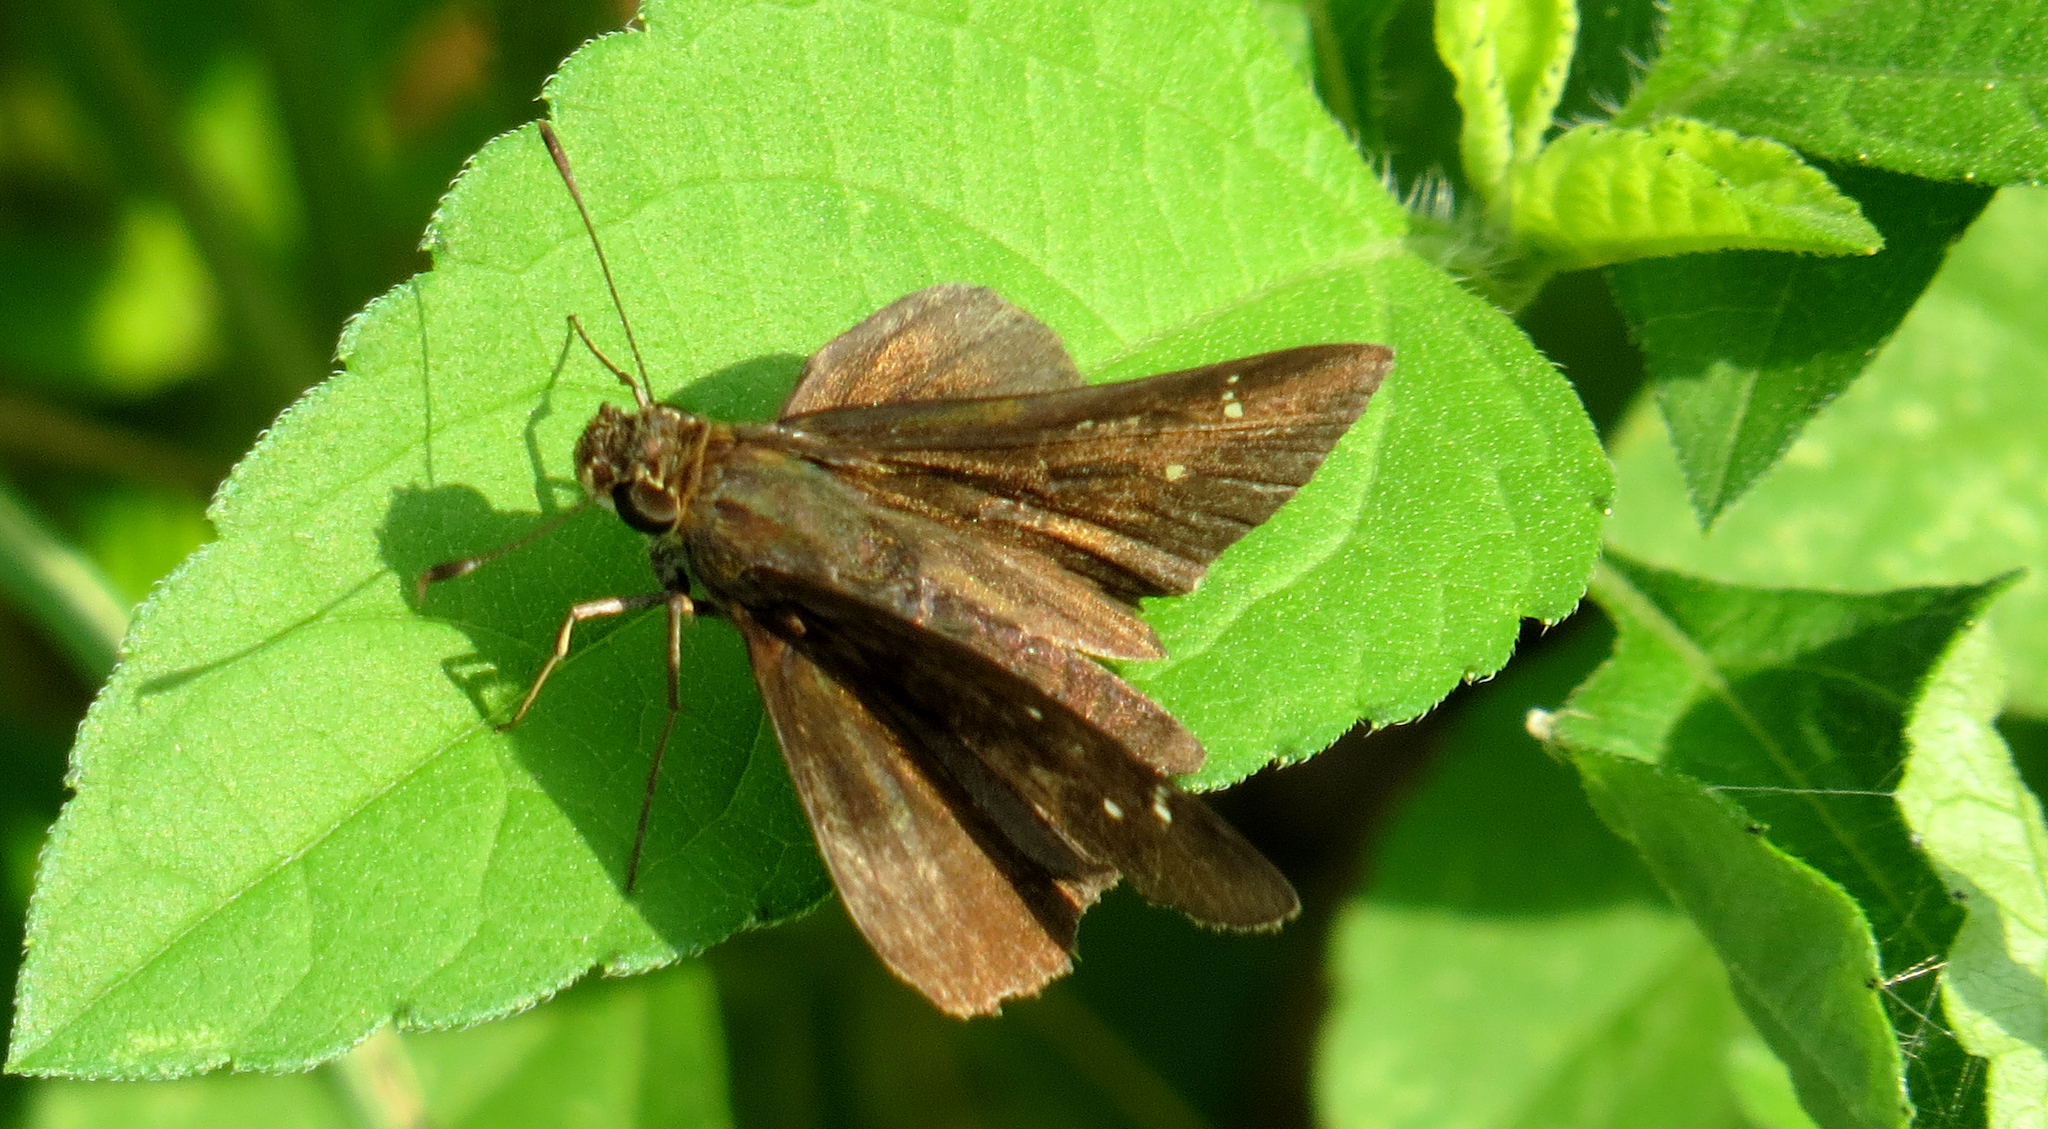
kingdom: Animalia
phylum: Arthropoda
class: Insecta
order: Lepidoptera
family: Hesperiidae
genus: Lerema
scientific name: Lerema accius
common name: Clouded skipper
